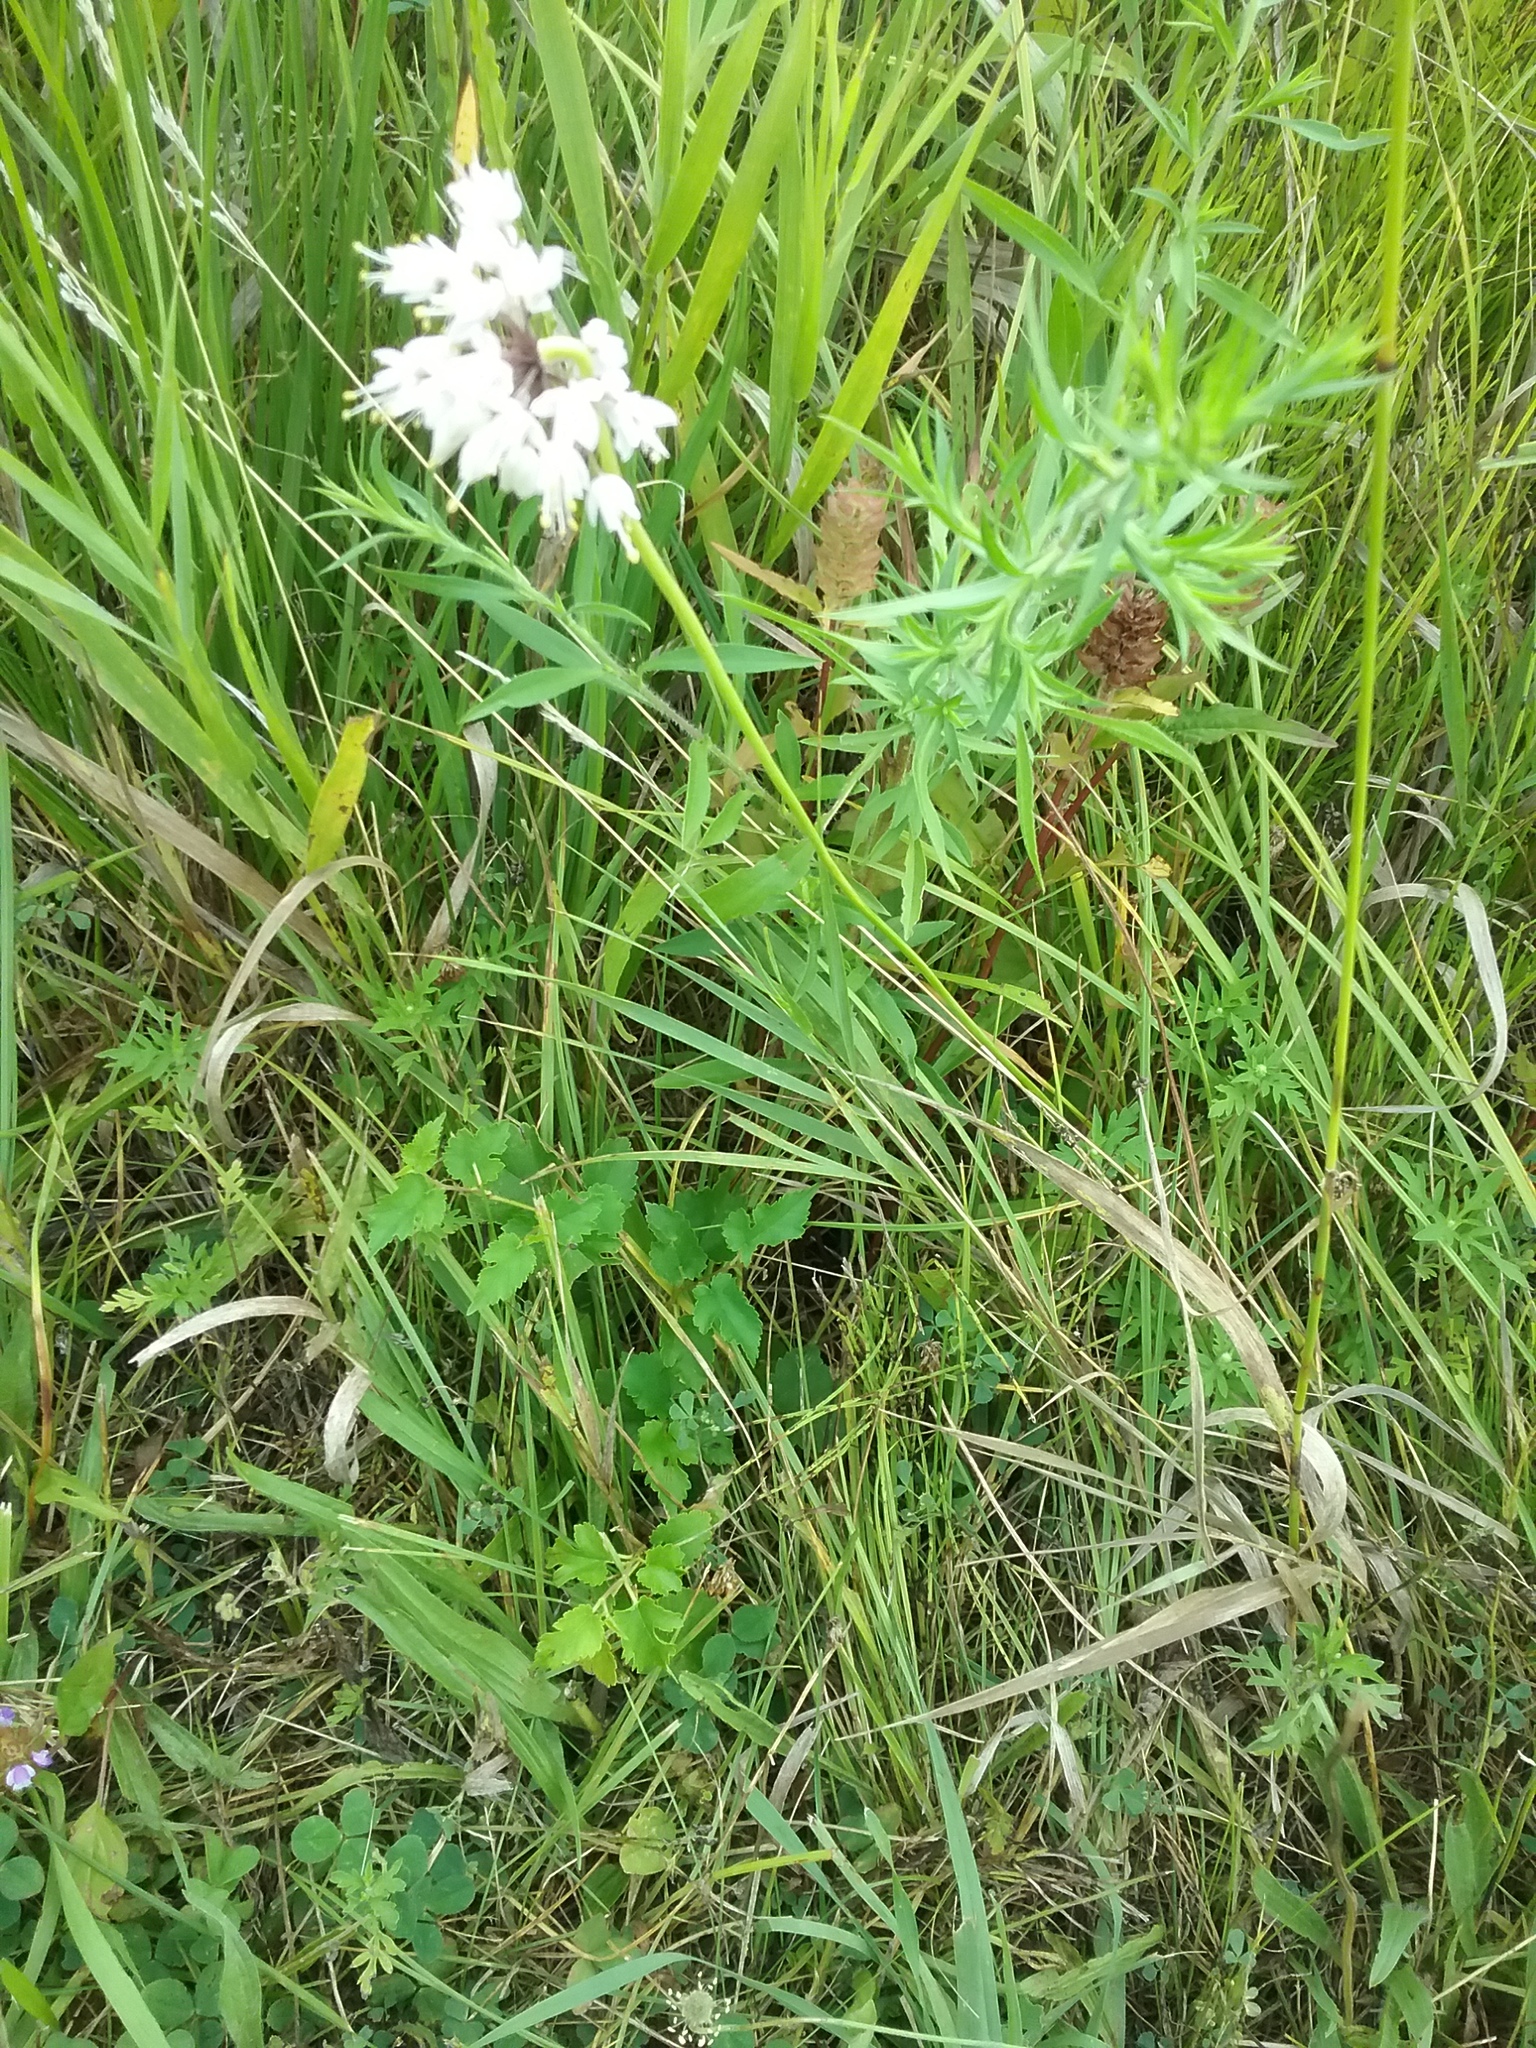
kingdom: Plantae
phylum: Tracheophyta
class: Liliopsida
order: Asparagales
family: Amaryllidaceae
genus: Allium
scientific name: Allium cernuum
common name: Nodding onion
